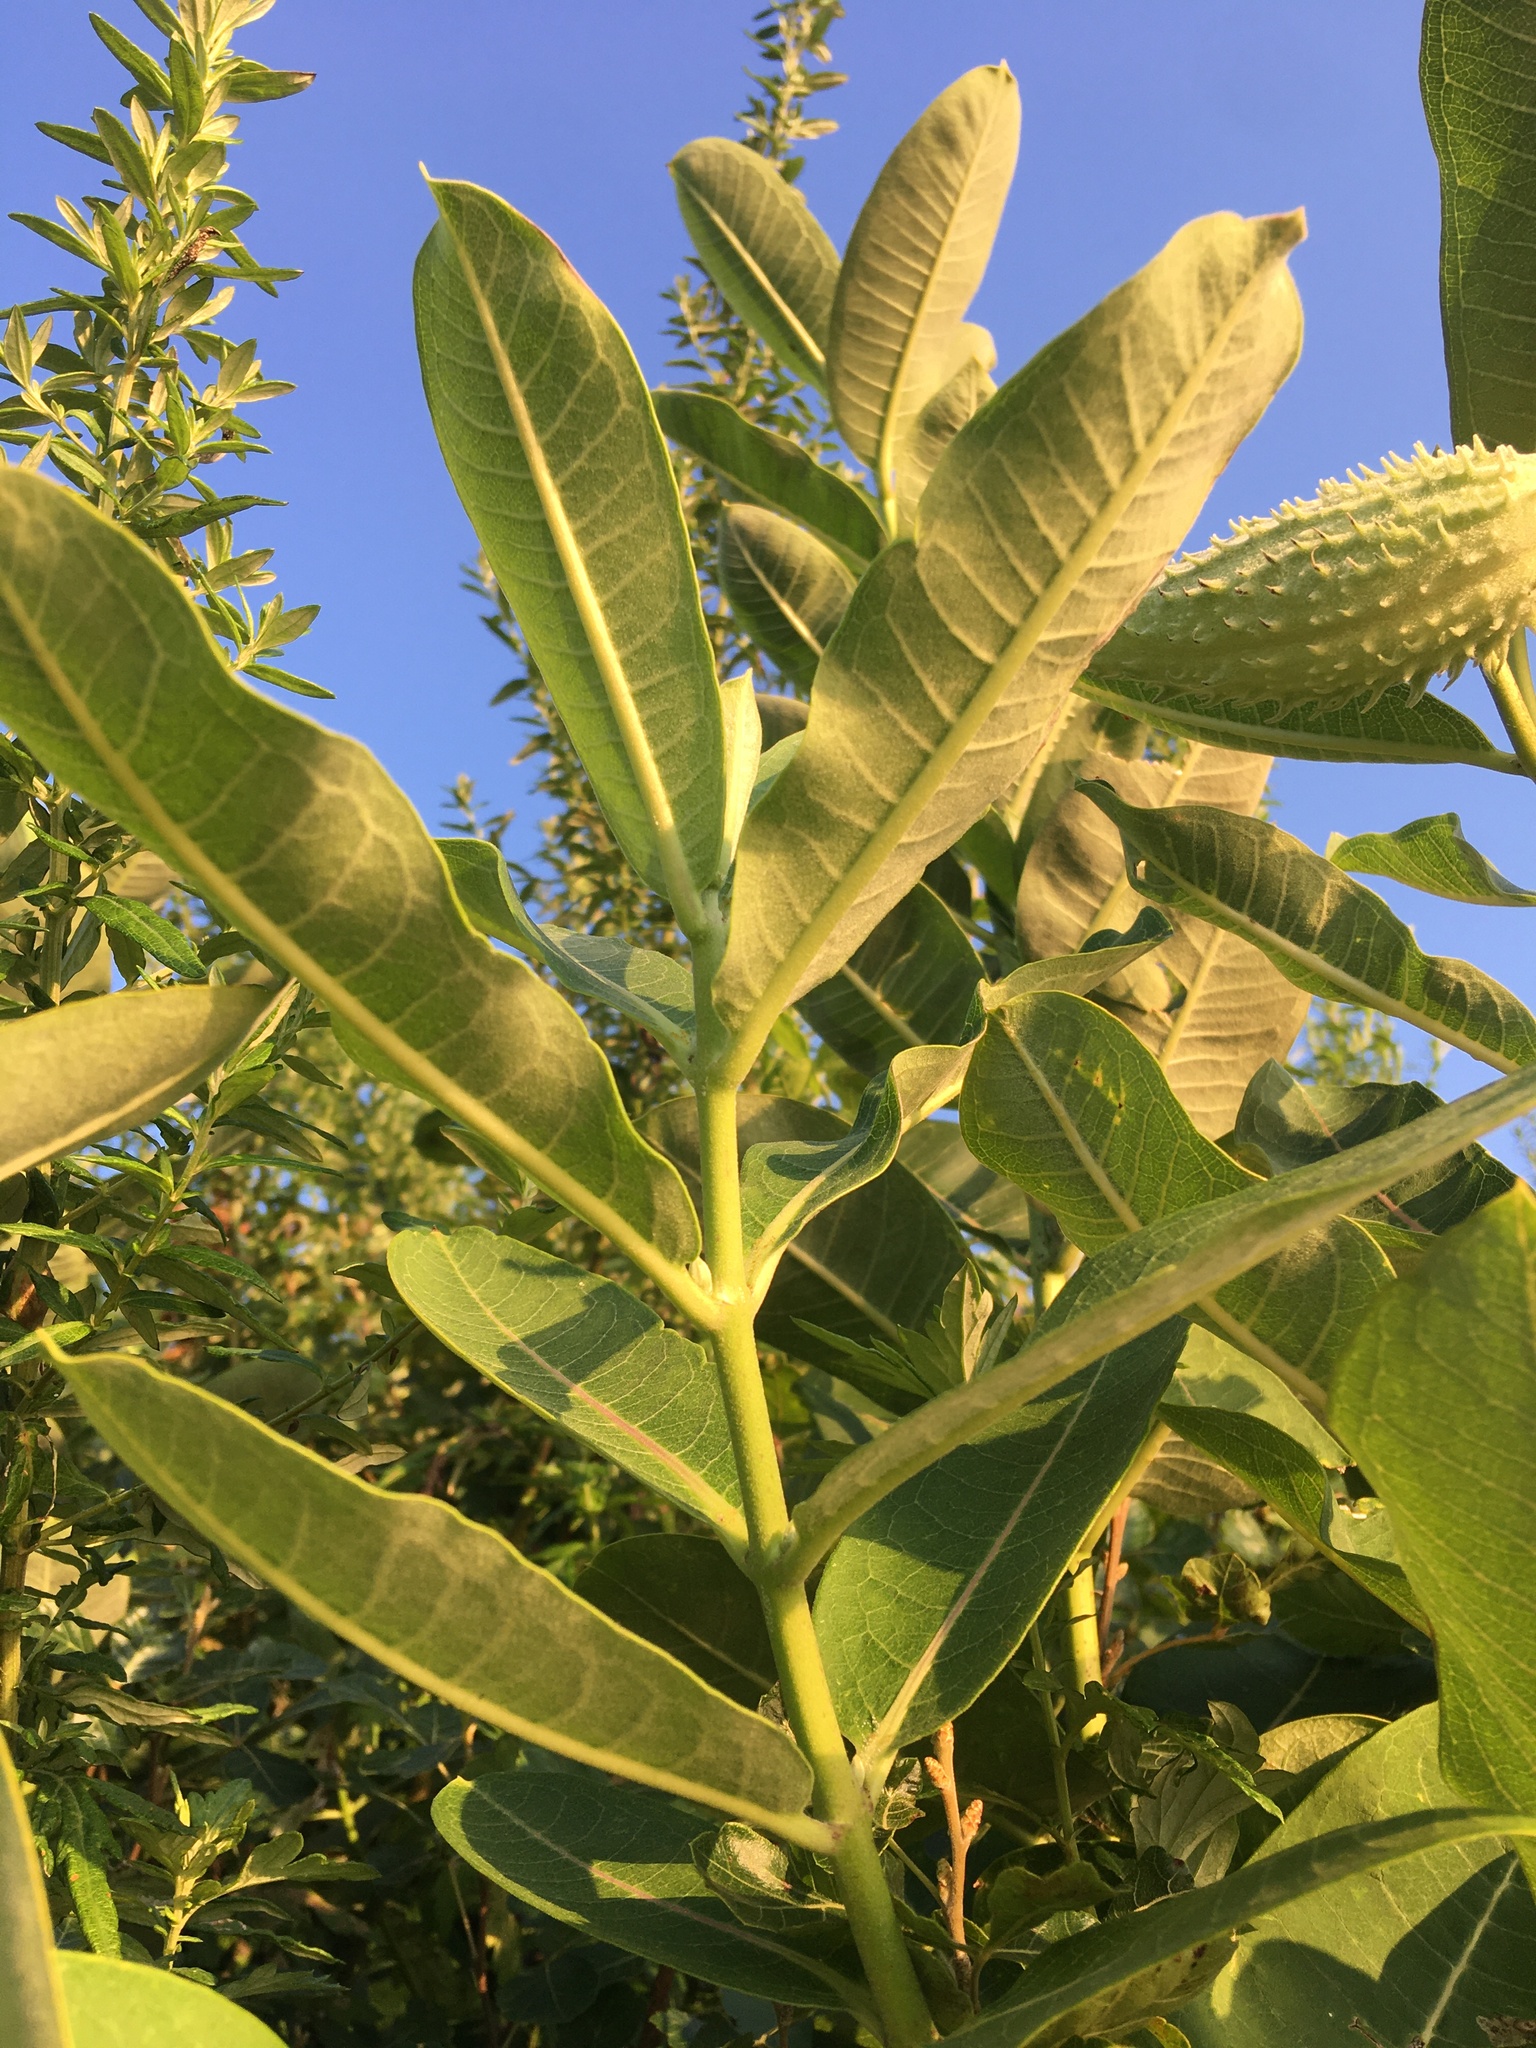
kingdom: Plantae
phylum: Tracheophyta
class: Magnoliopsida
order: Gentianales
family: Apocynaceae
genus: Asclepias
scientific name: Asclepias syriaca
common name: Common milkweed
